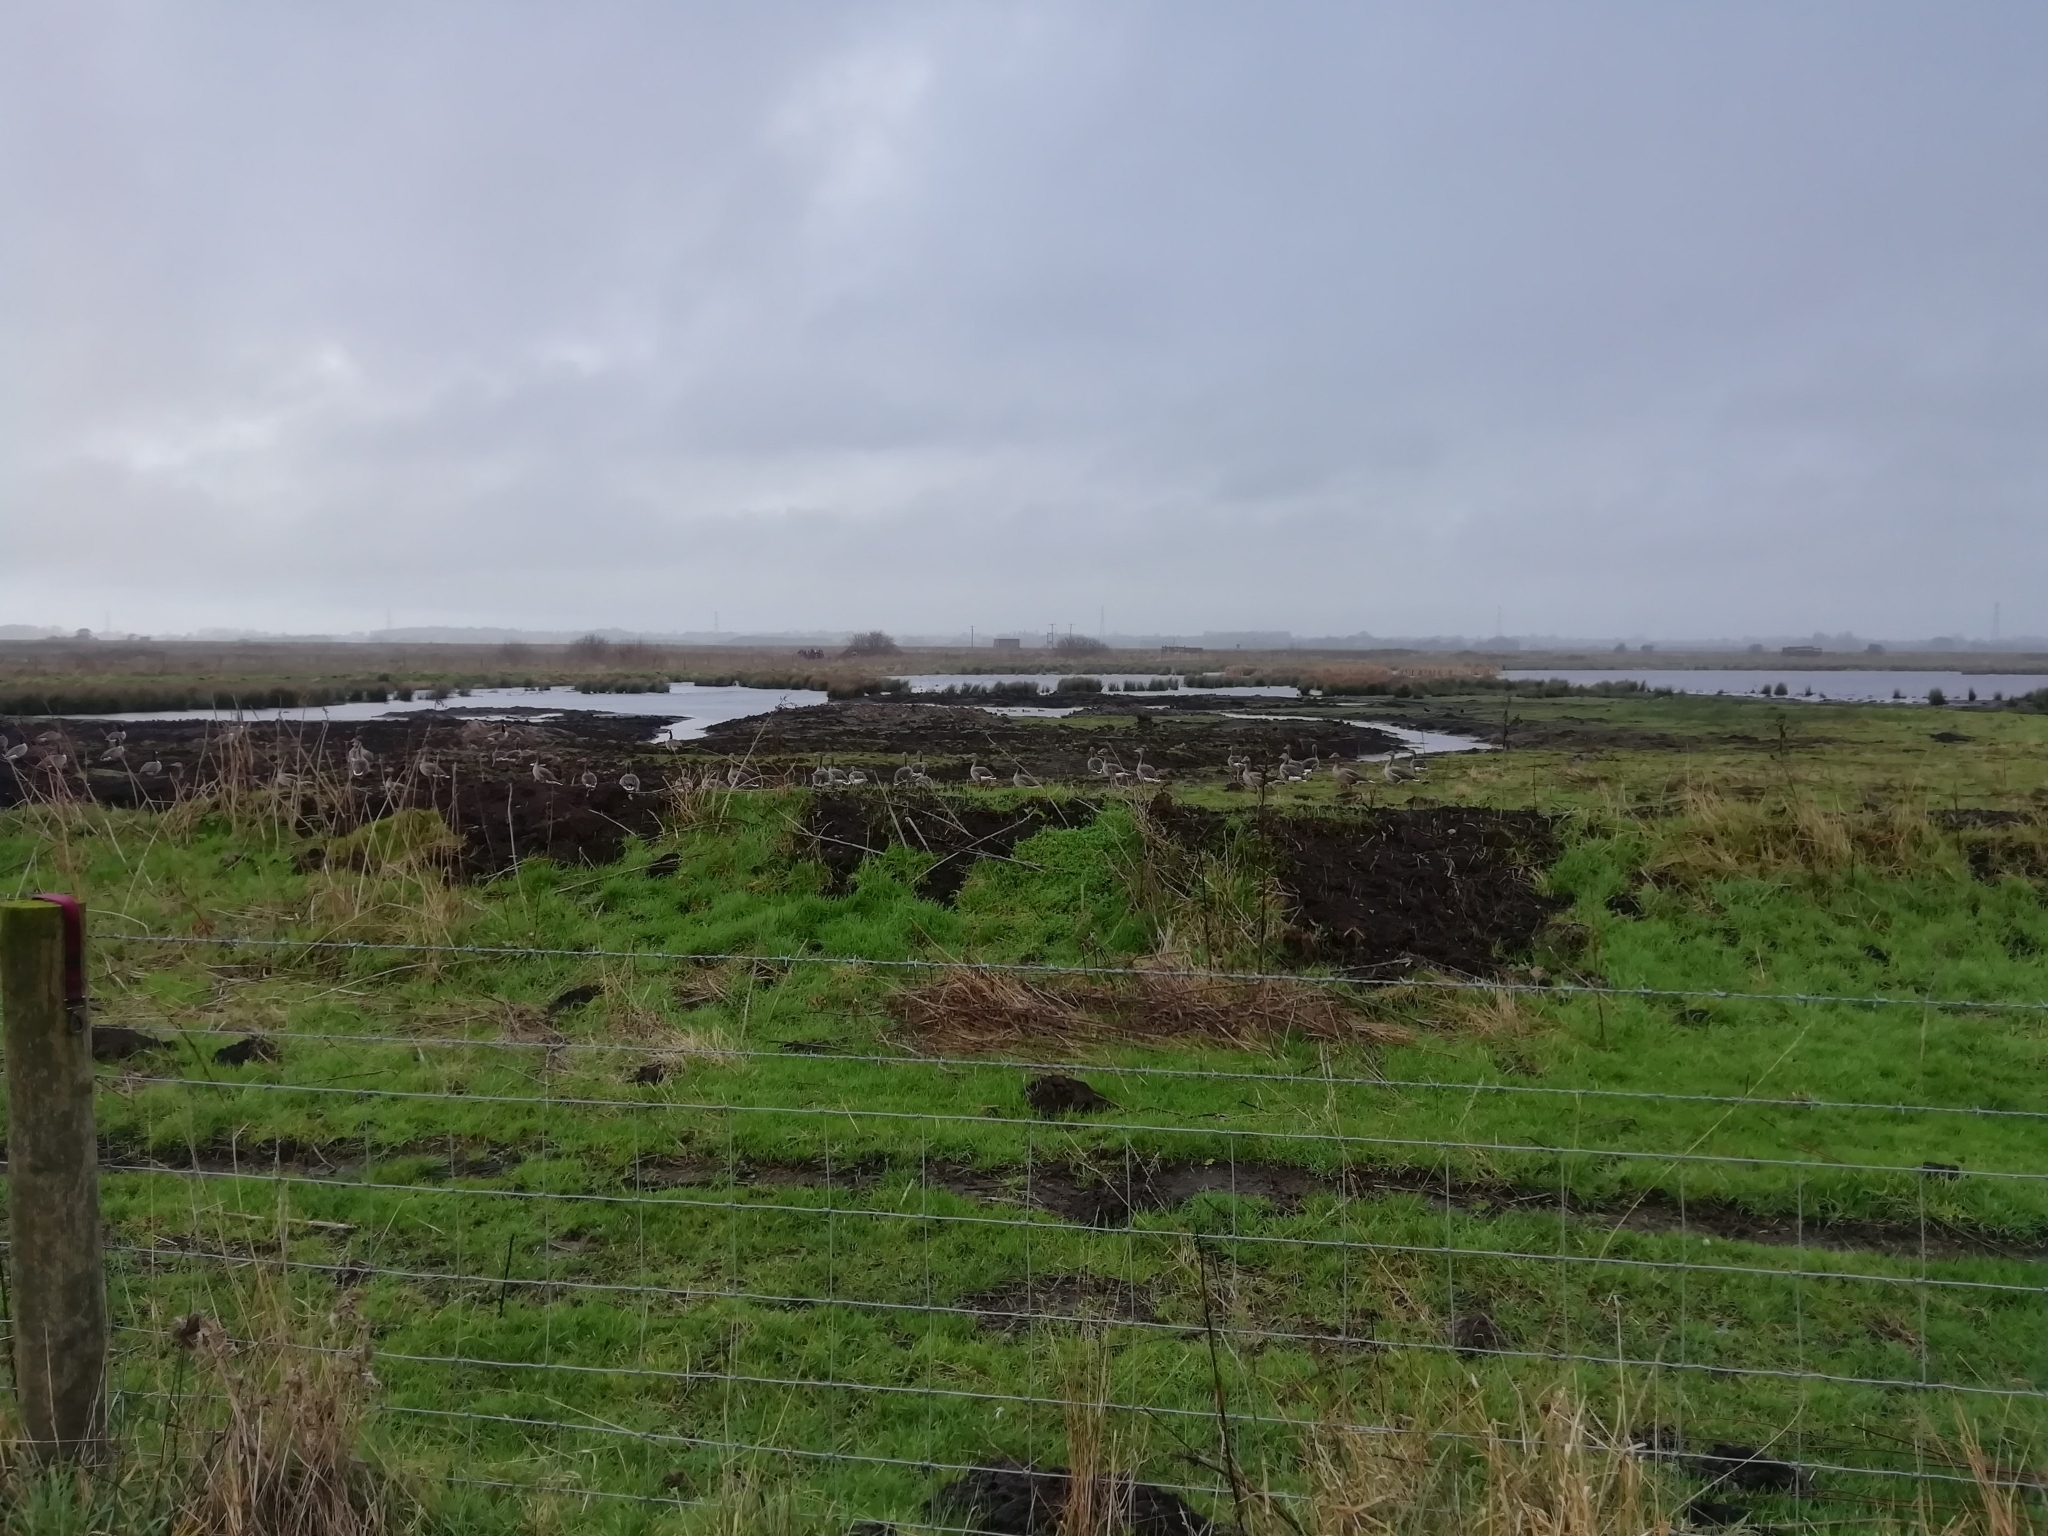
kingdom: Animalia
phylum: Chordata
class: Aves
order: Anseriformes
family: Anatidae
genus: Anser
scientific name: Anser anser
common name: Greylag goose
